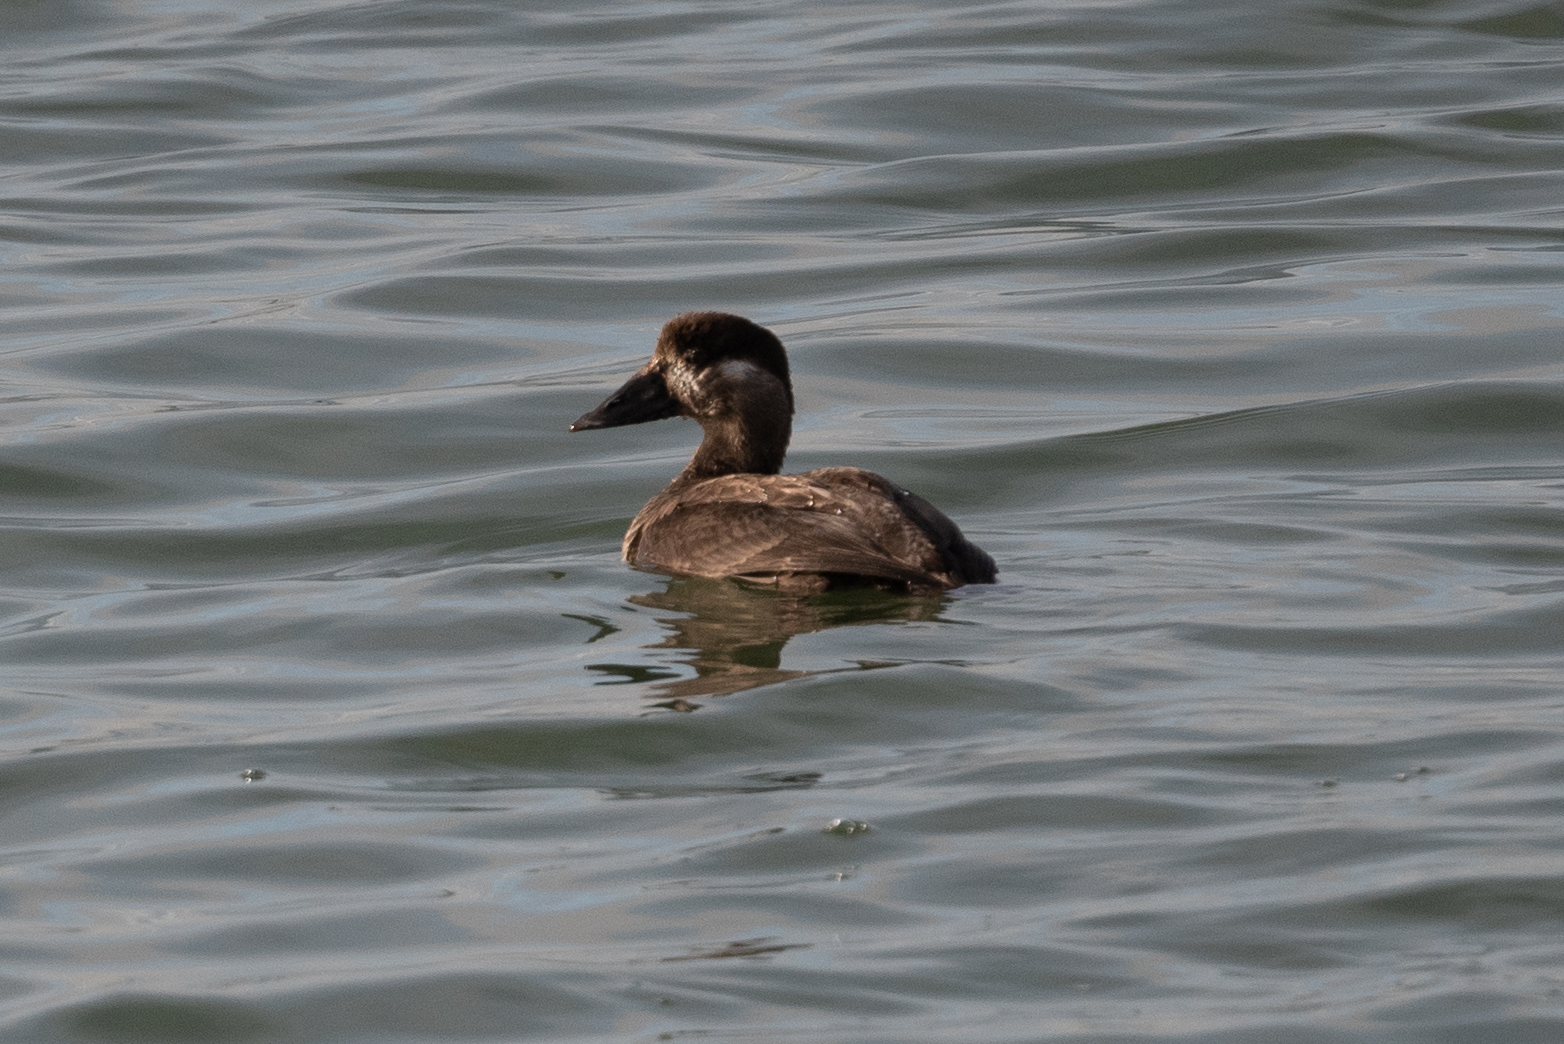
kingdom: Animalia
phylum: Chordata
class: Aves
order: Anseriformes
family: Anatidae
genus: Melanitta
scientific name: Melanitta perspicillata
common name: Surf scoter
